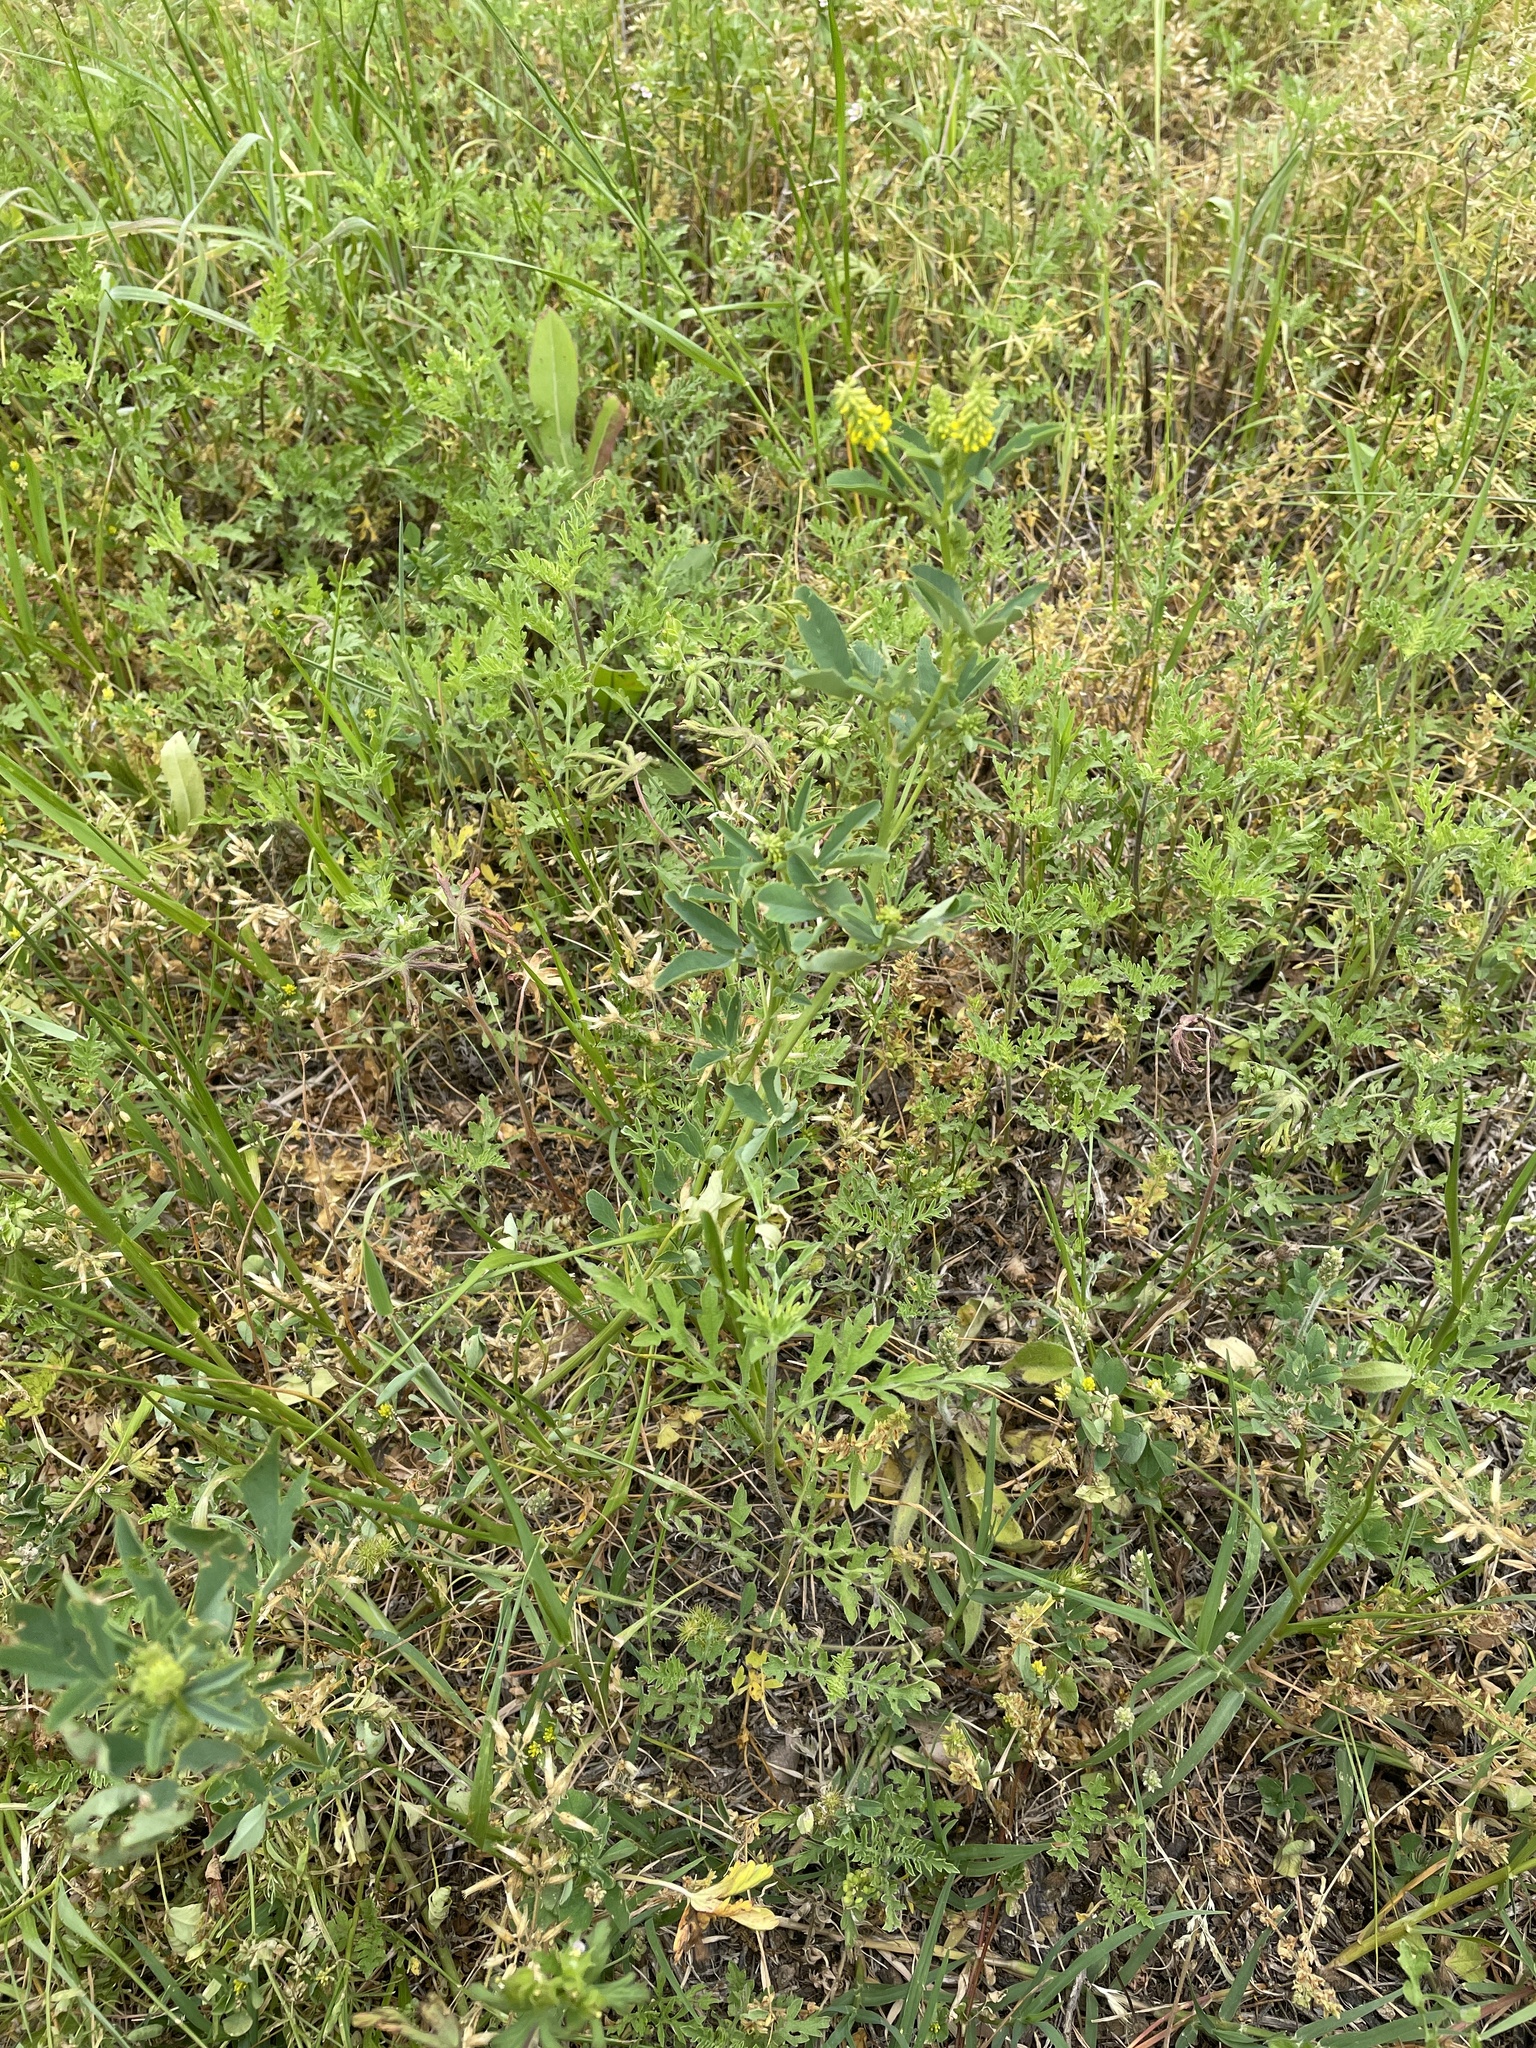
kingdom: Plantae
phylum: Tracheophyta
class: Magnoliopsida
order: Fabales
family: Fabaceae
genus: Melilotus
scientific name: Melilotus indicus
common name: Small melilot
